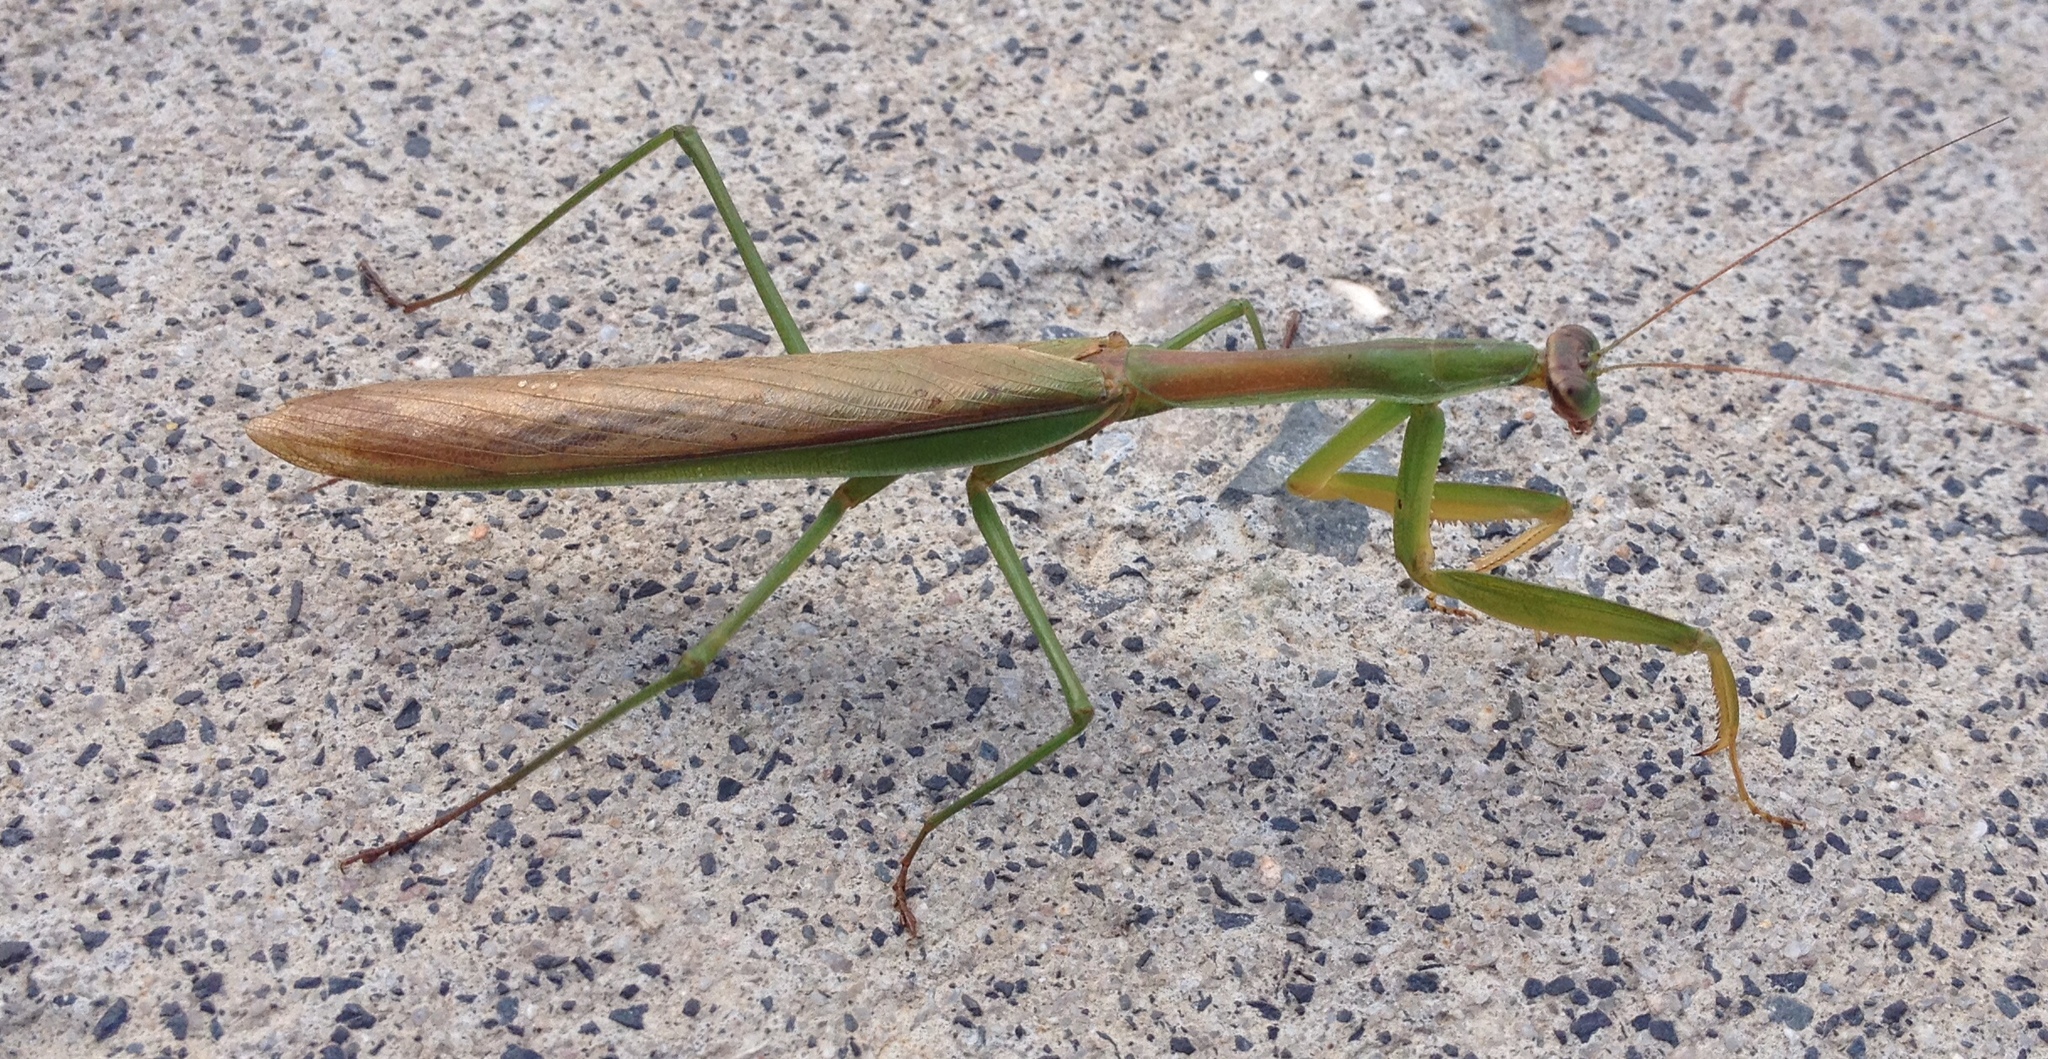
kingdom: Animalia
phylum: Arthropoda
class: Insecta
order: Mantodea
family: Mantidae
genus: Tenodera
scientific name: Tenodera sinensis
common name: Chinese mantis
